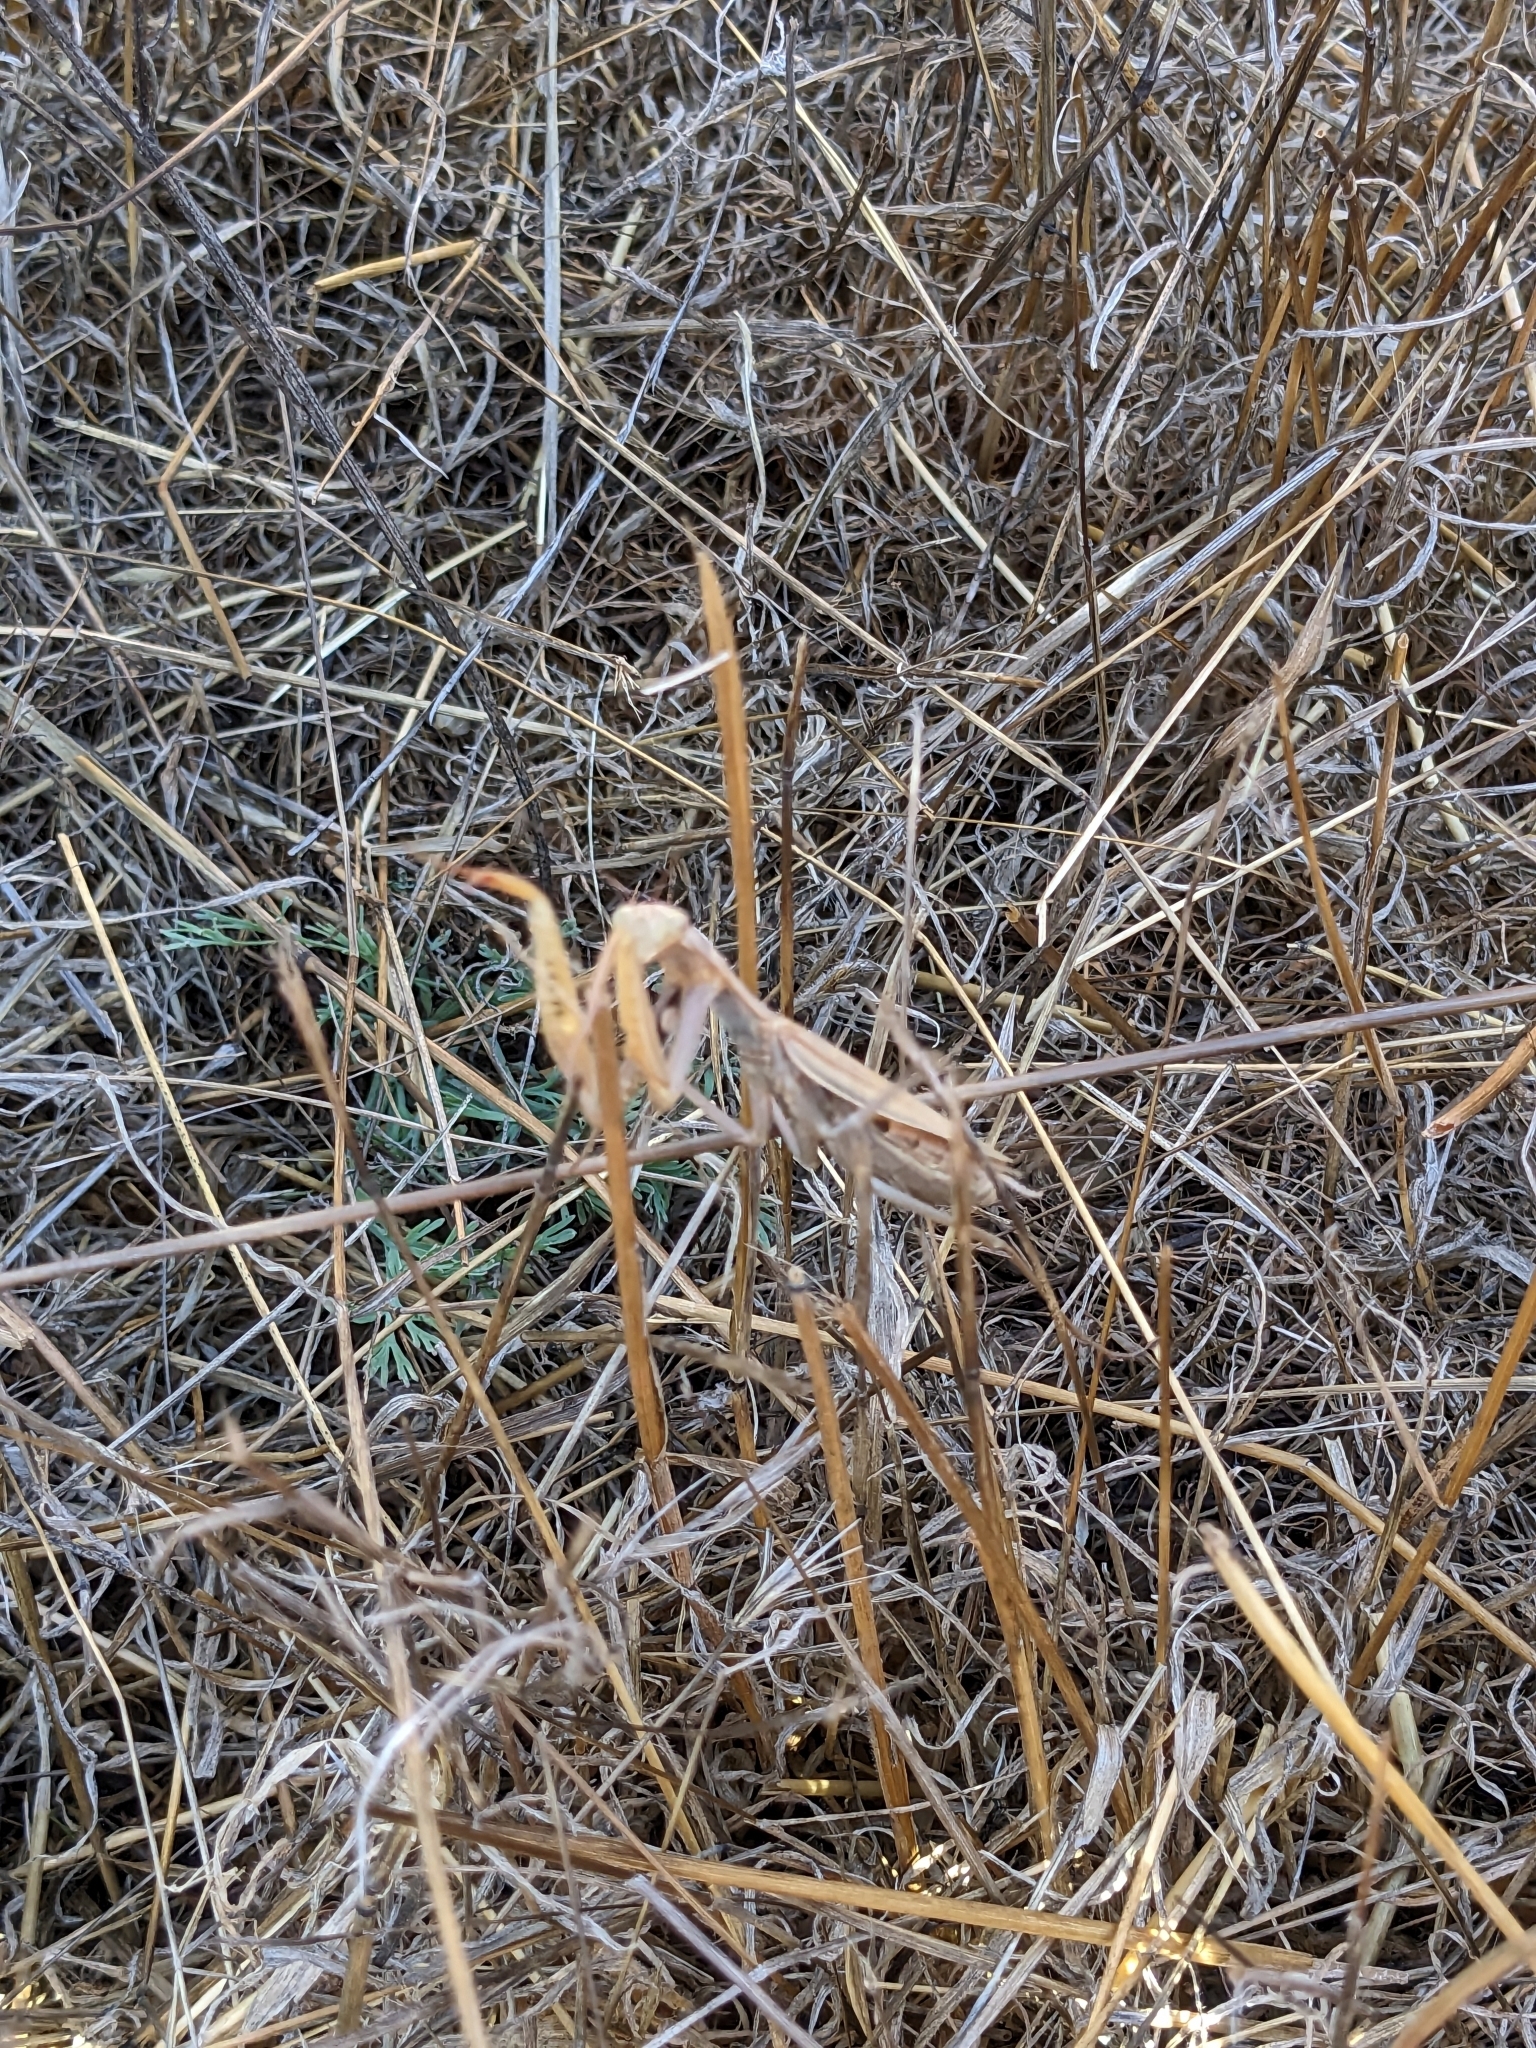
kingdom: Animalia
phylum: Arthropoda
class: Insecta
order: Mantodea
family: Mantidae
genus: Mantis
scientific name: Mantis religiosa
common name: Praying mantis
